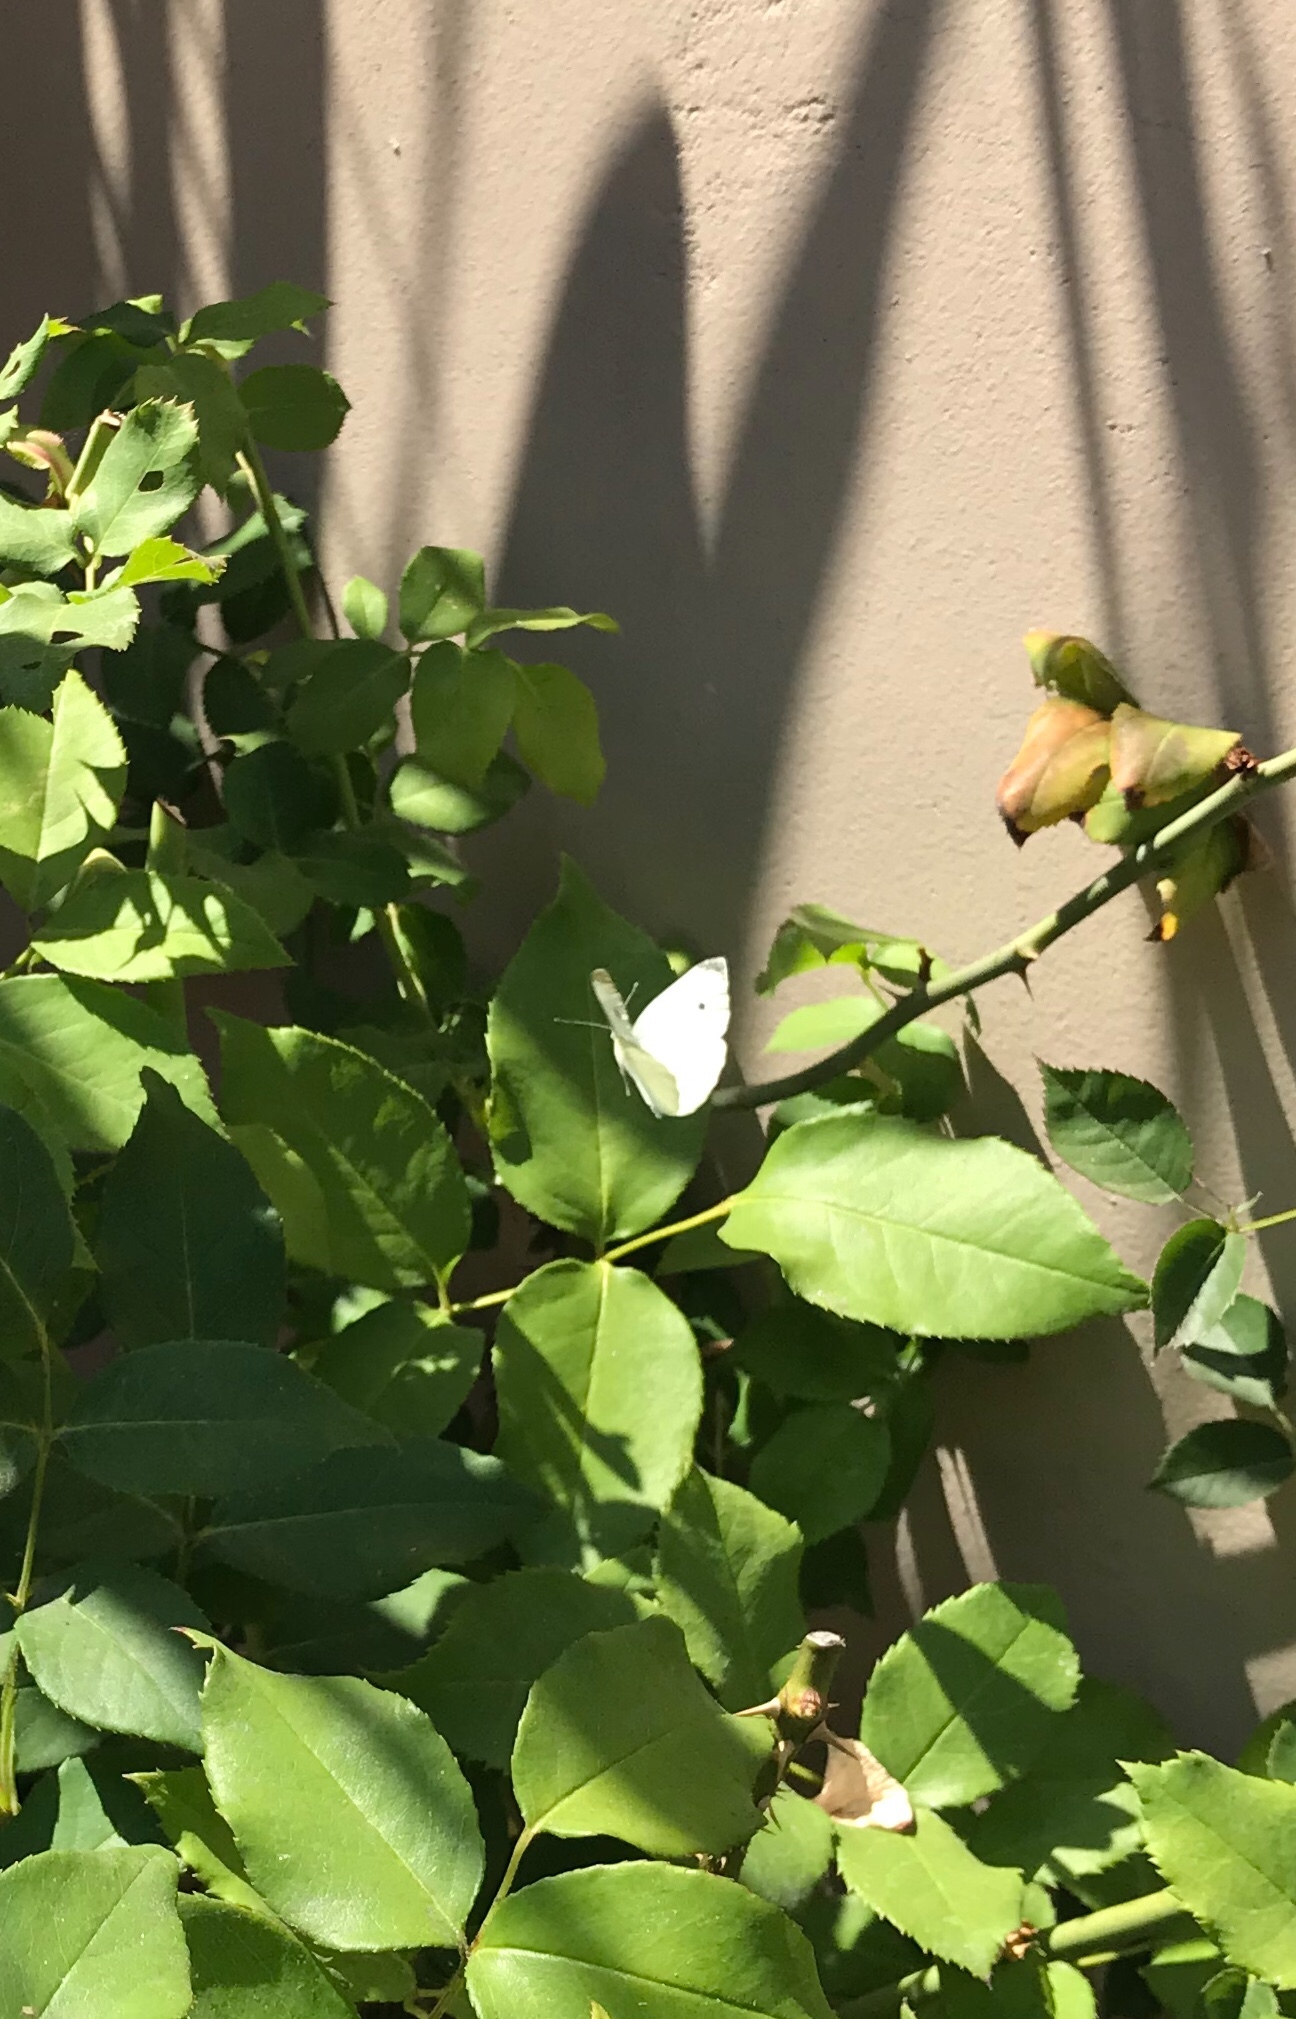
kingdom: Animalia
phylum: Arthropoda
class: Insecta
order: Lepidoptera
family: Pieridae
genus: Pieris
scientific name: Pieris rapae
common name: Small white
